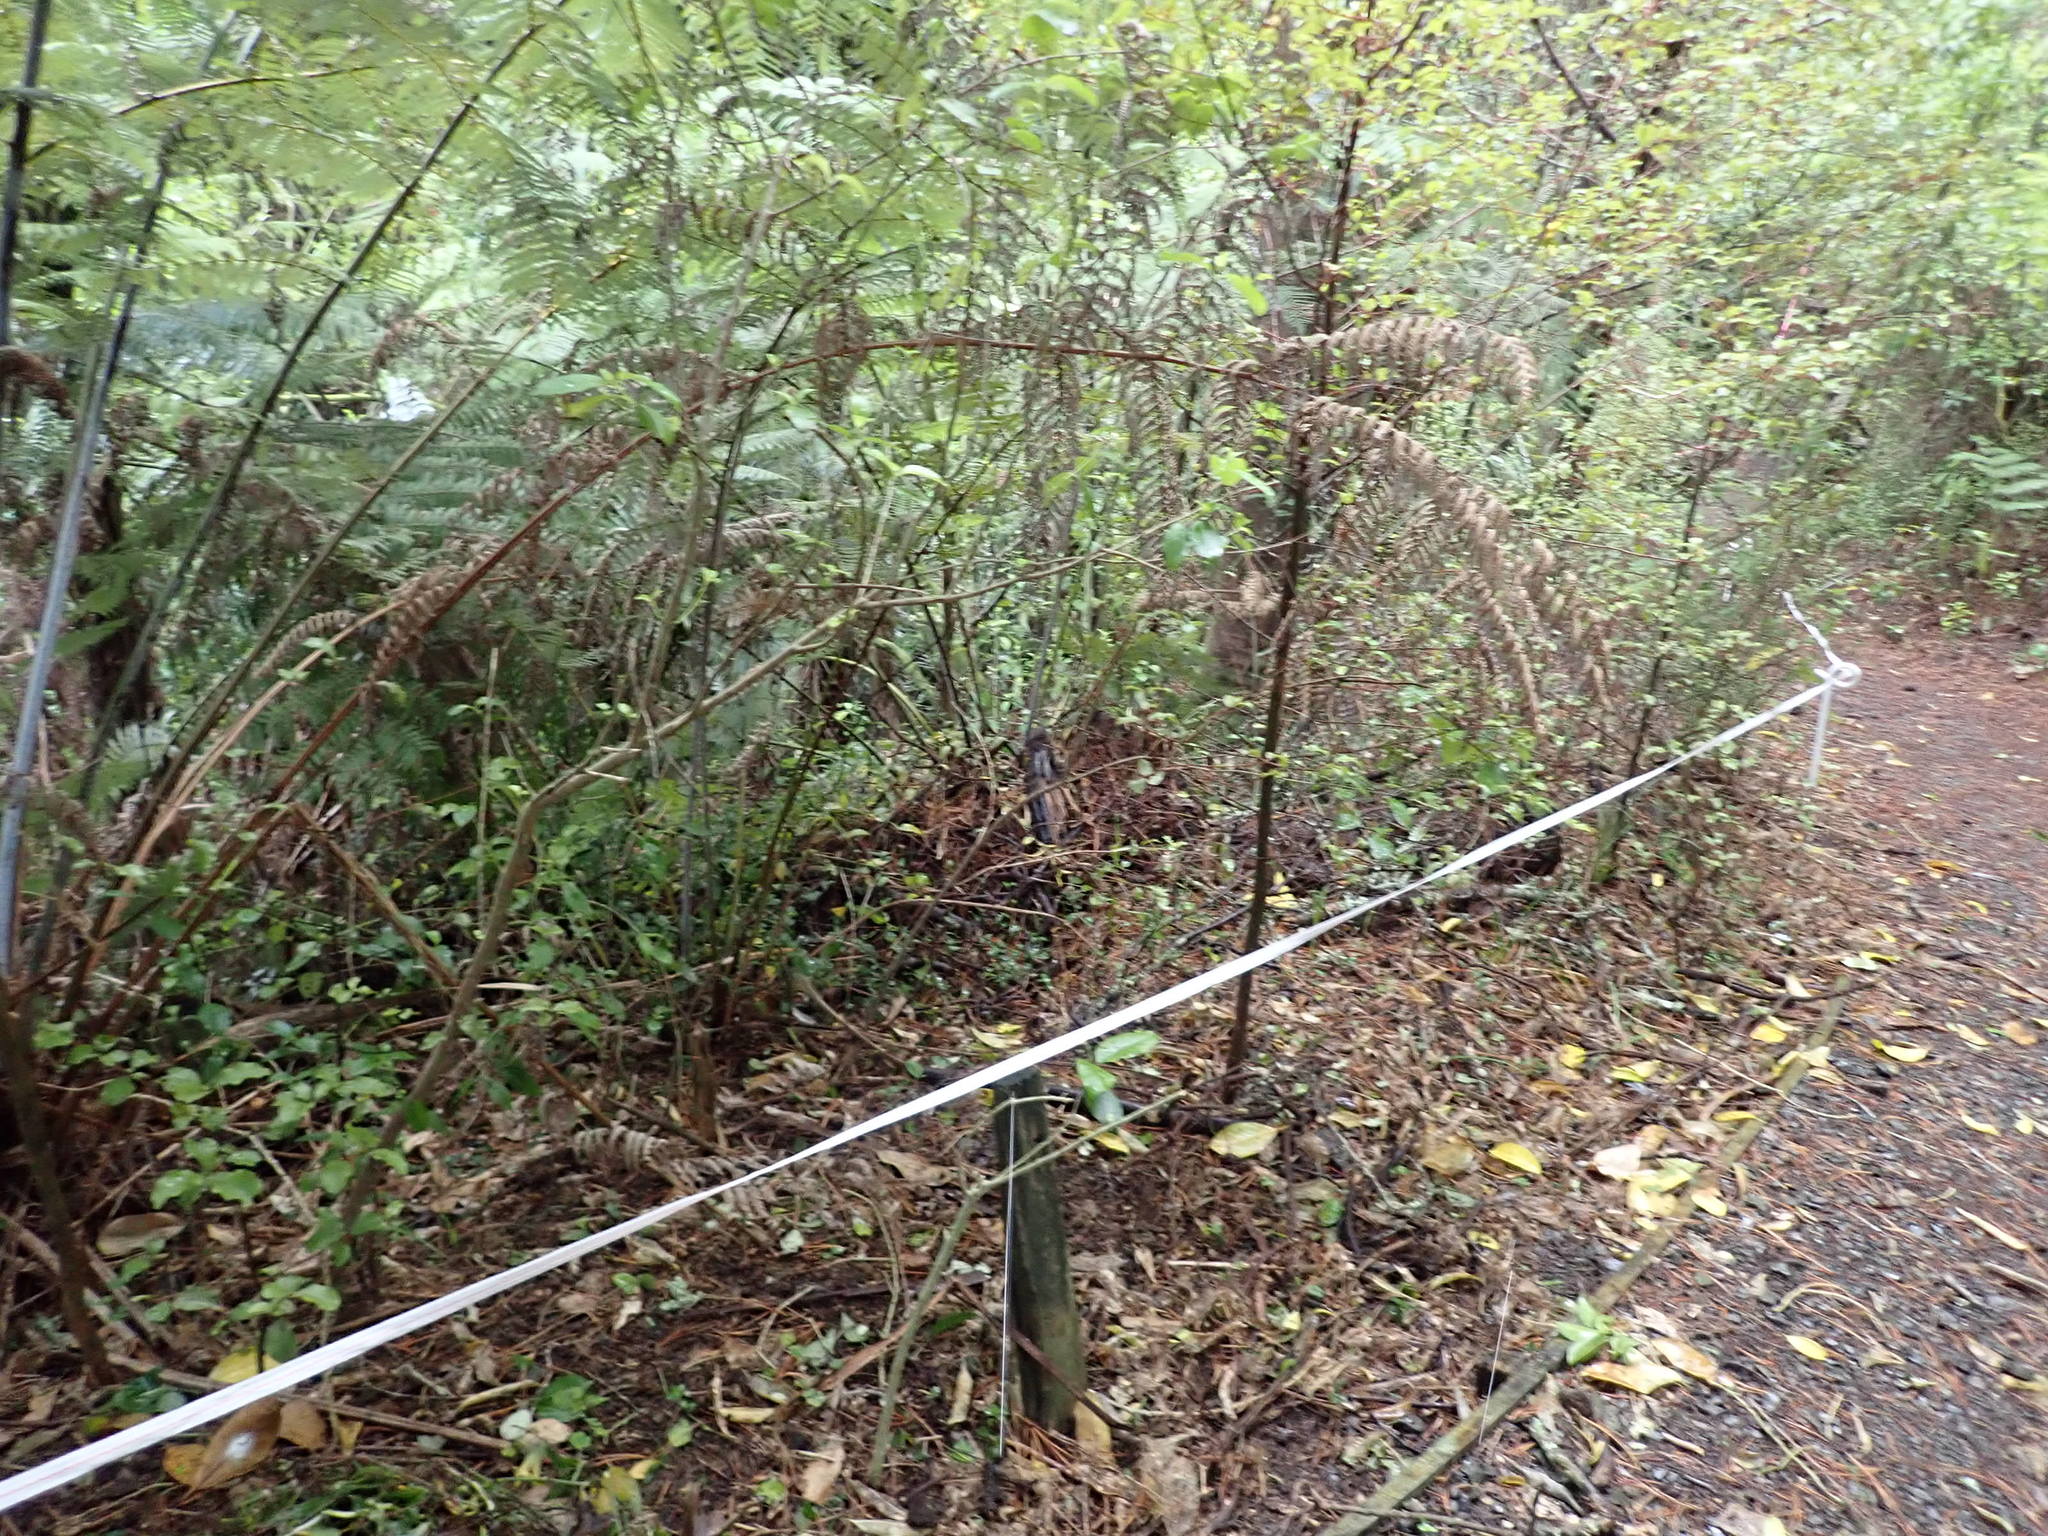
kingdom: Plantae
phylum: Tracheophyta
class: Liliopsida
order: Commelinales
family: Commelinaceae
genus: Tradescantia
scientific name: Tradescantia fluminensis
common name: Wandering-jew
